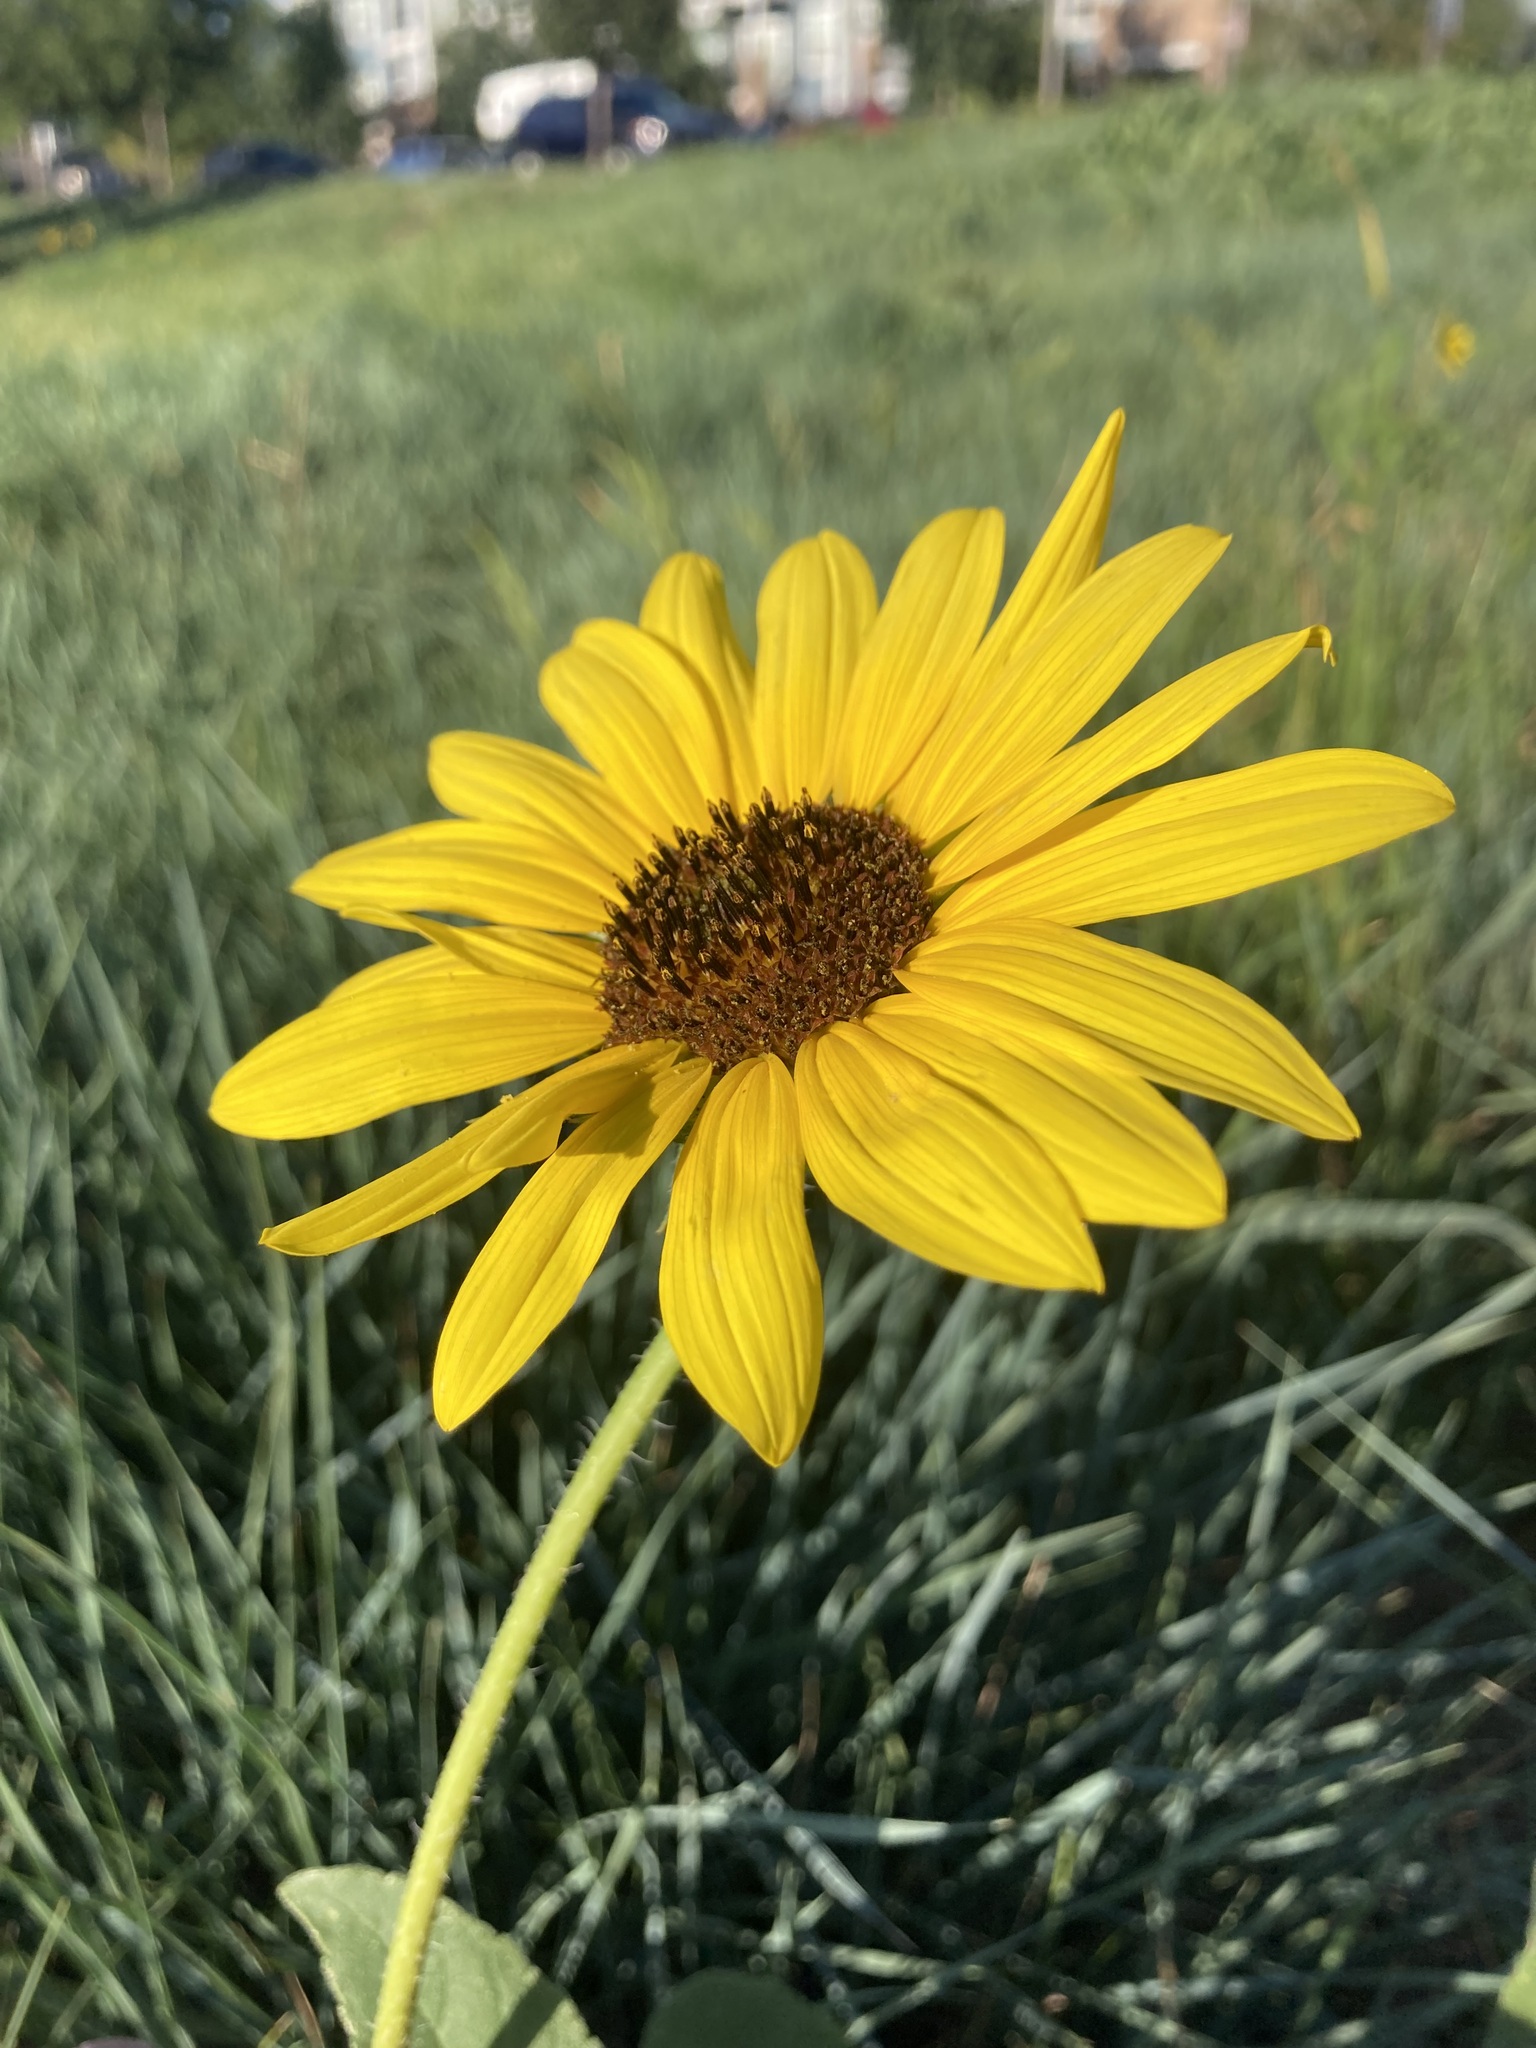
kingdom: Plantae
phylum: Tracheophyta
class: Magnoliopsida
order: Asterales
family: Asteraceae
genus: Helianthus
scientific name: Helianthus annuus
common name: Sunflower
